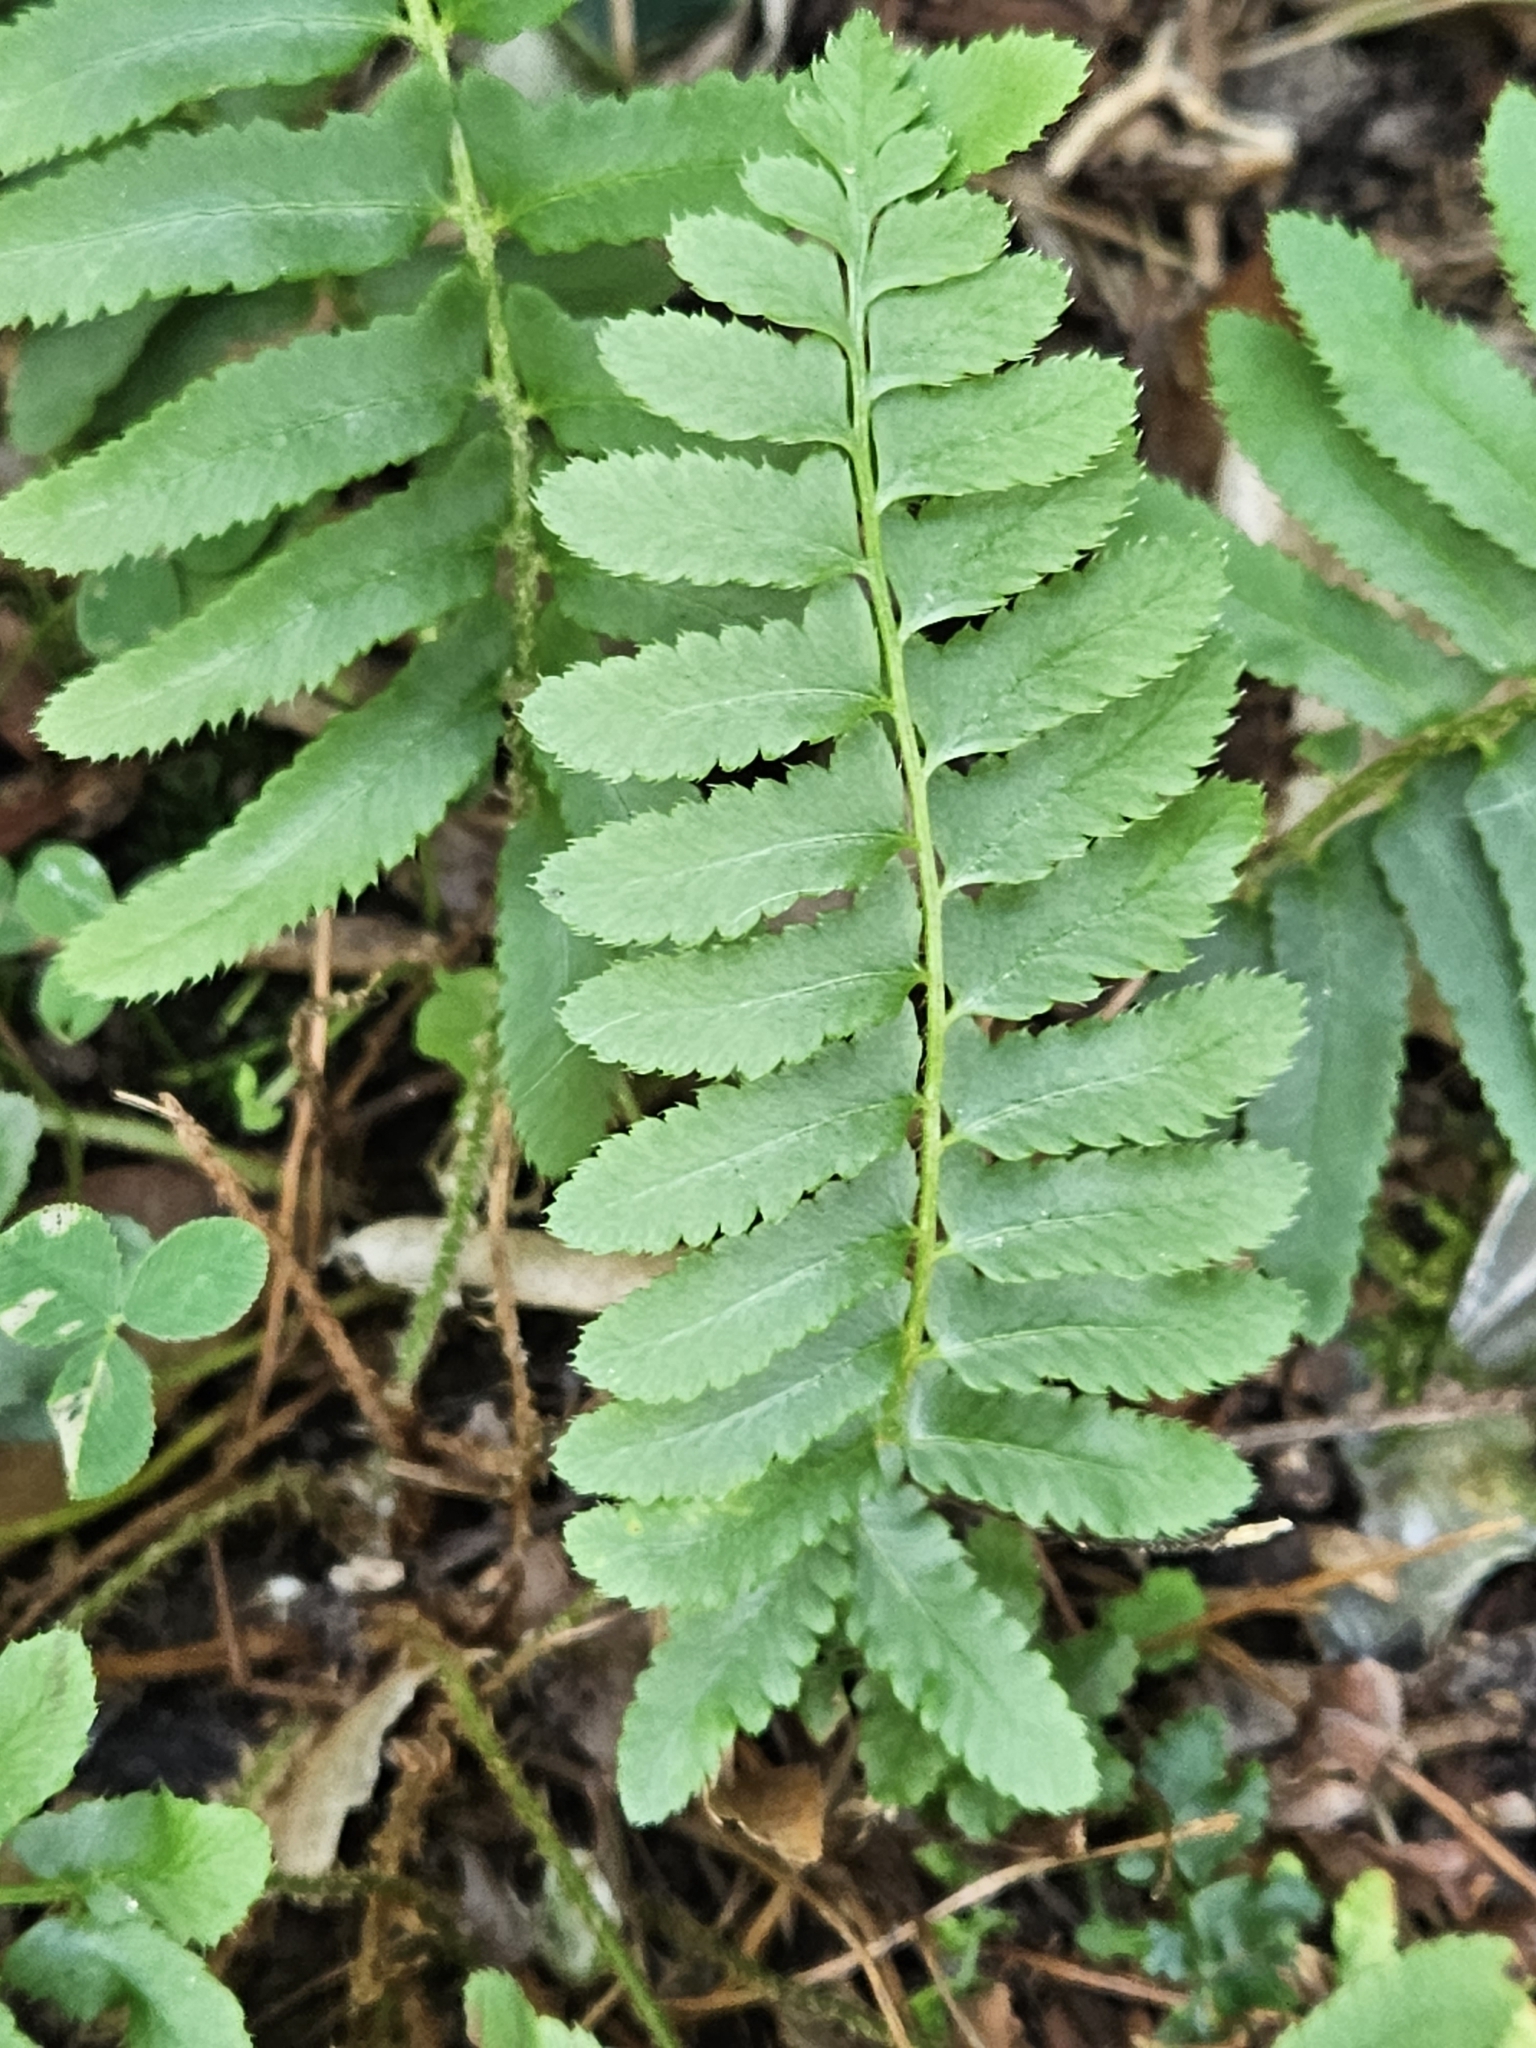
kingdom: Plantae
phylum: Tracheophyta
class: Polypodiopsida
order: Polypodiales
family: Dryopteridaceae
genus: Polystichum
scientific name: Polystichum acrostichoides
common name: Christmas fern
